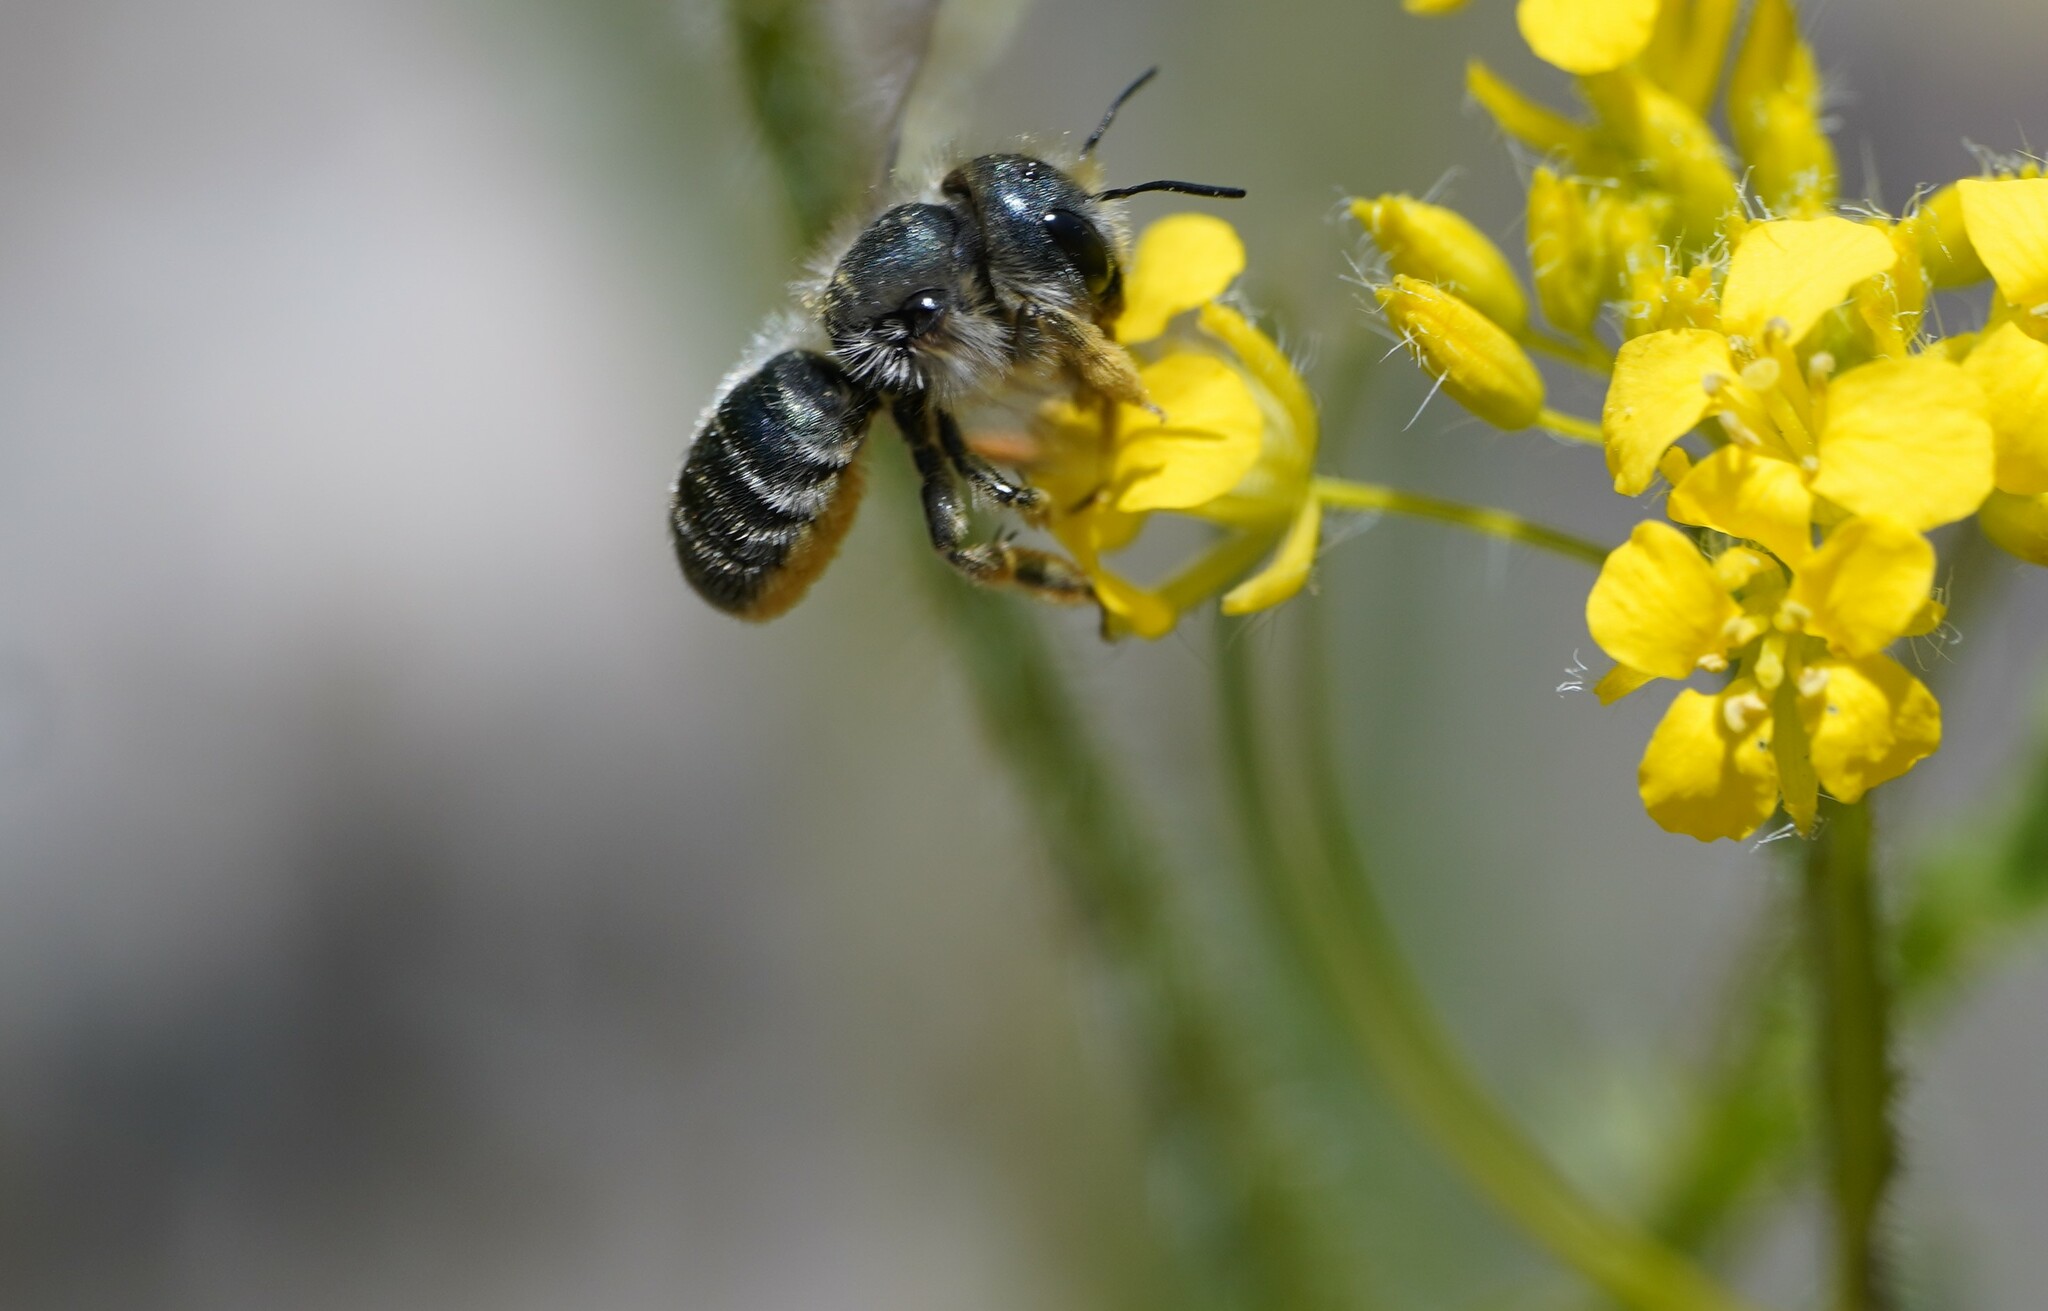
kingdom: Animalia
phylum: Arthropoda
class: Insecta
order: Hymenoptera
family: Megachilidae
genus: Osmia
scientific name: Osmia brevicornis
